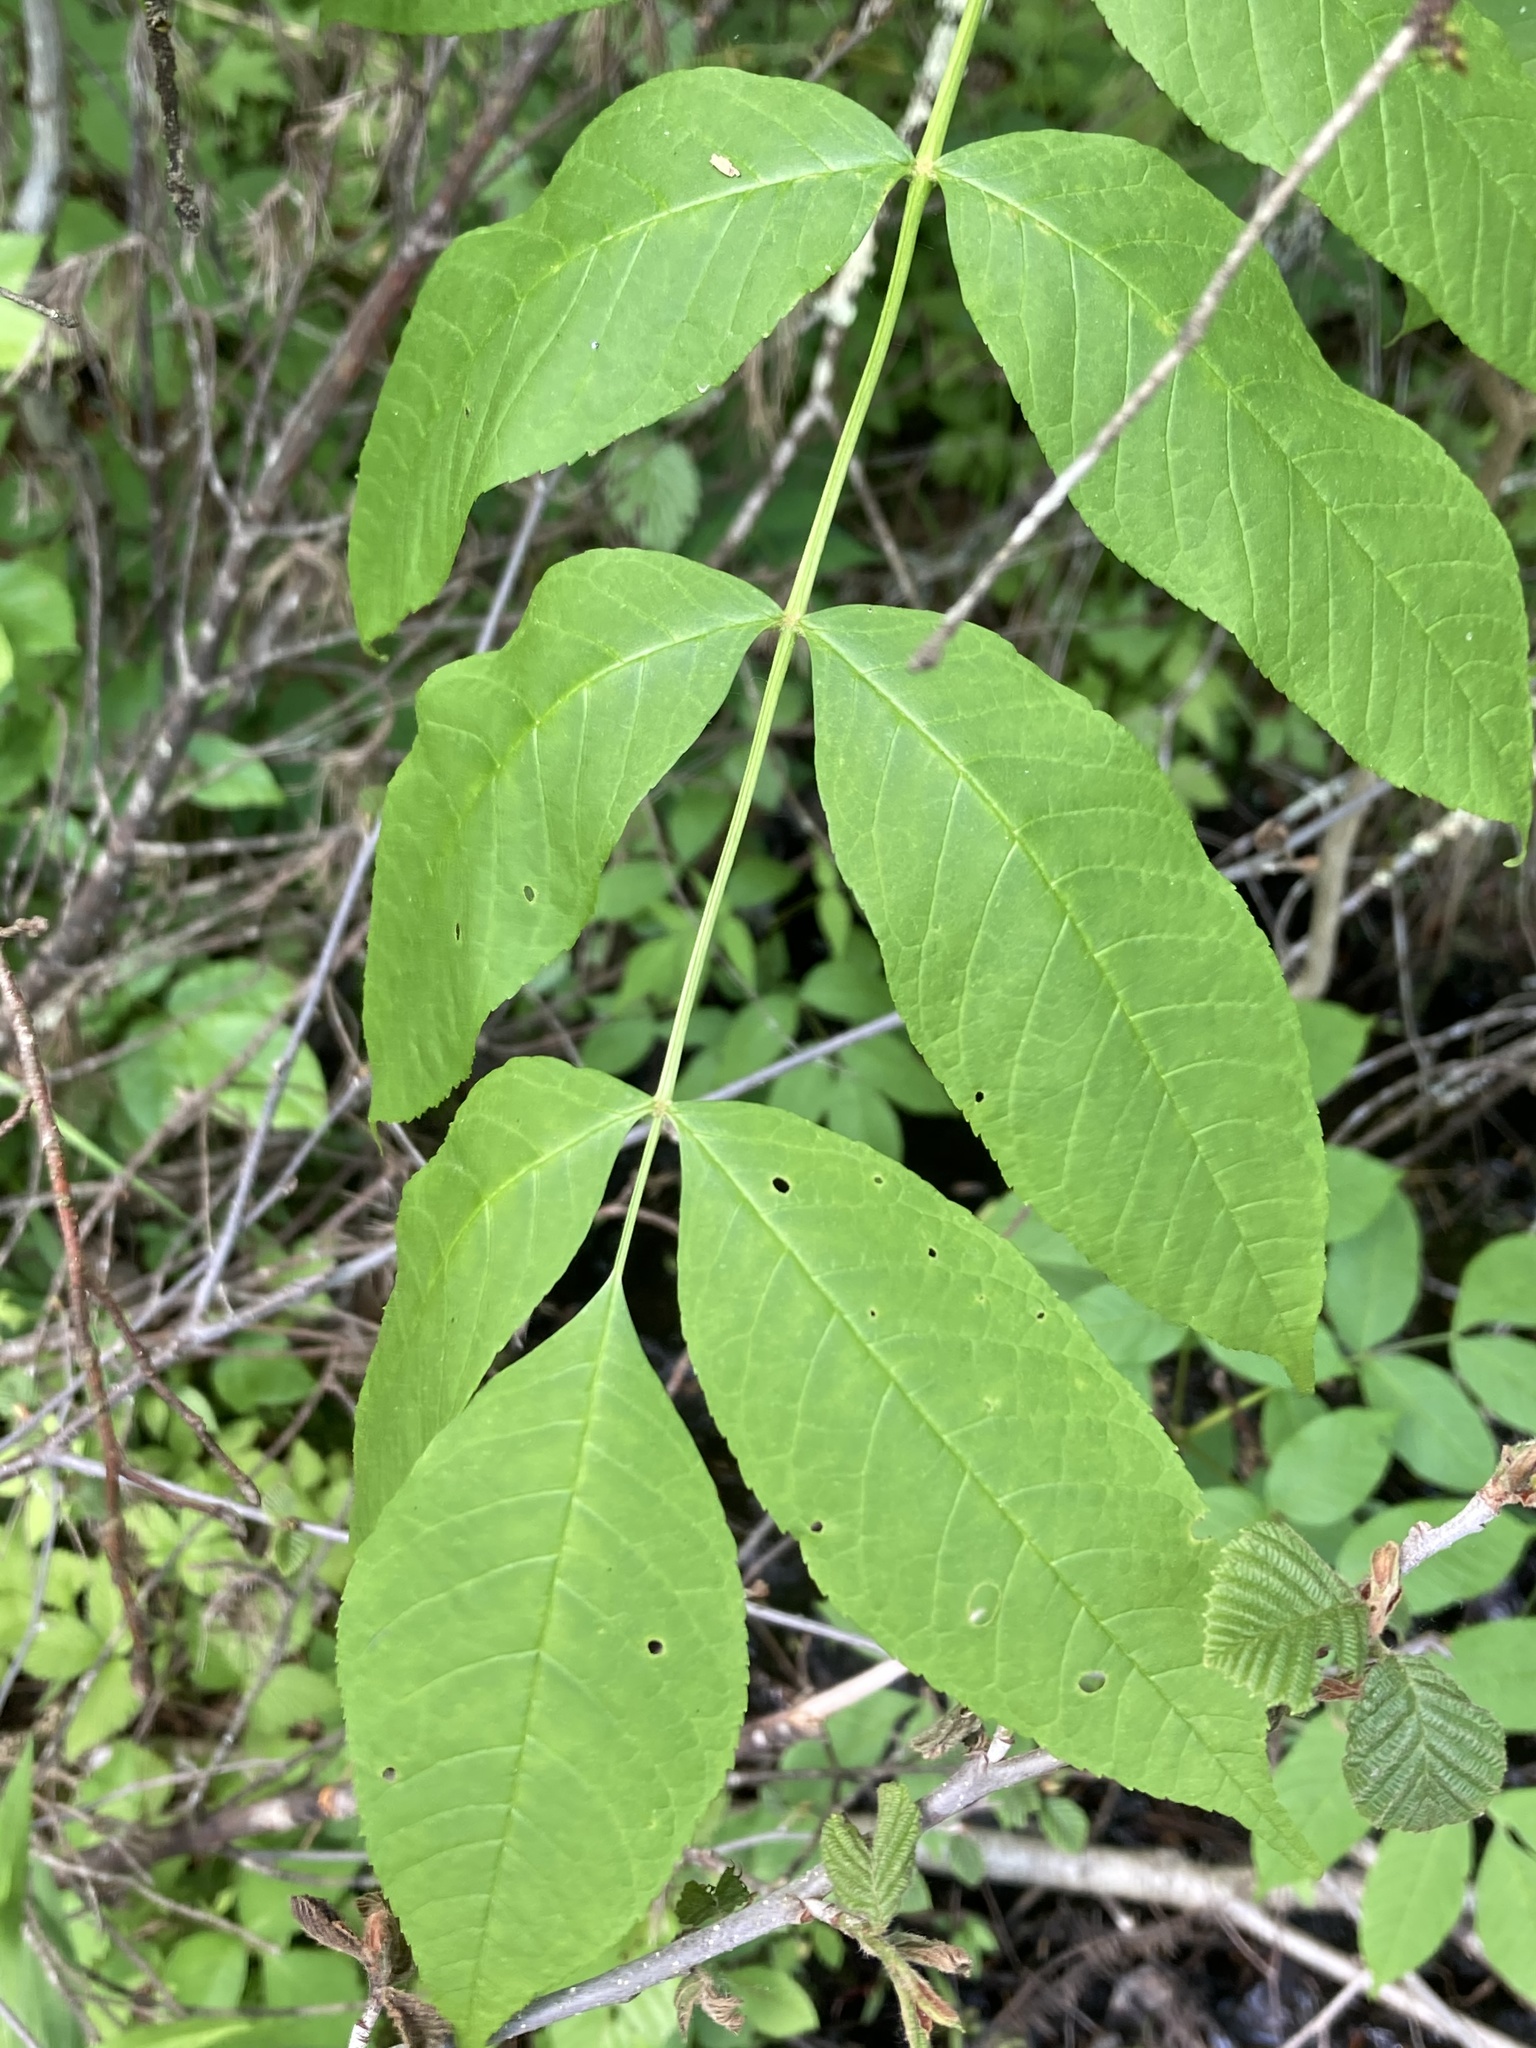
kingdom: Plantae
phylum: Tracheophyta
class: Magnoliopsida
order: Lamiales
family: Oleaceae
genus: Fraxinus
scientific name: Fraxinus nigra
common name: Black ash
